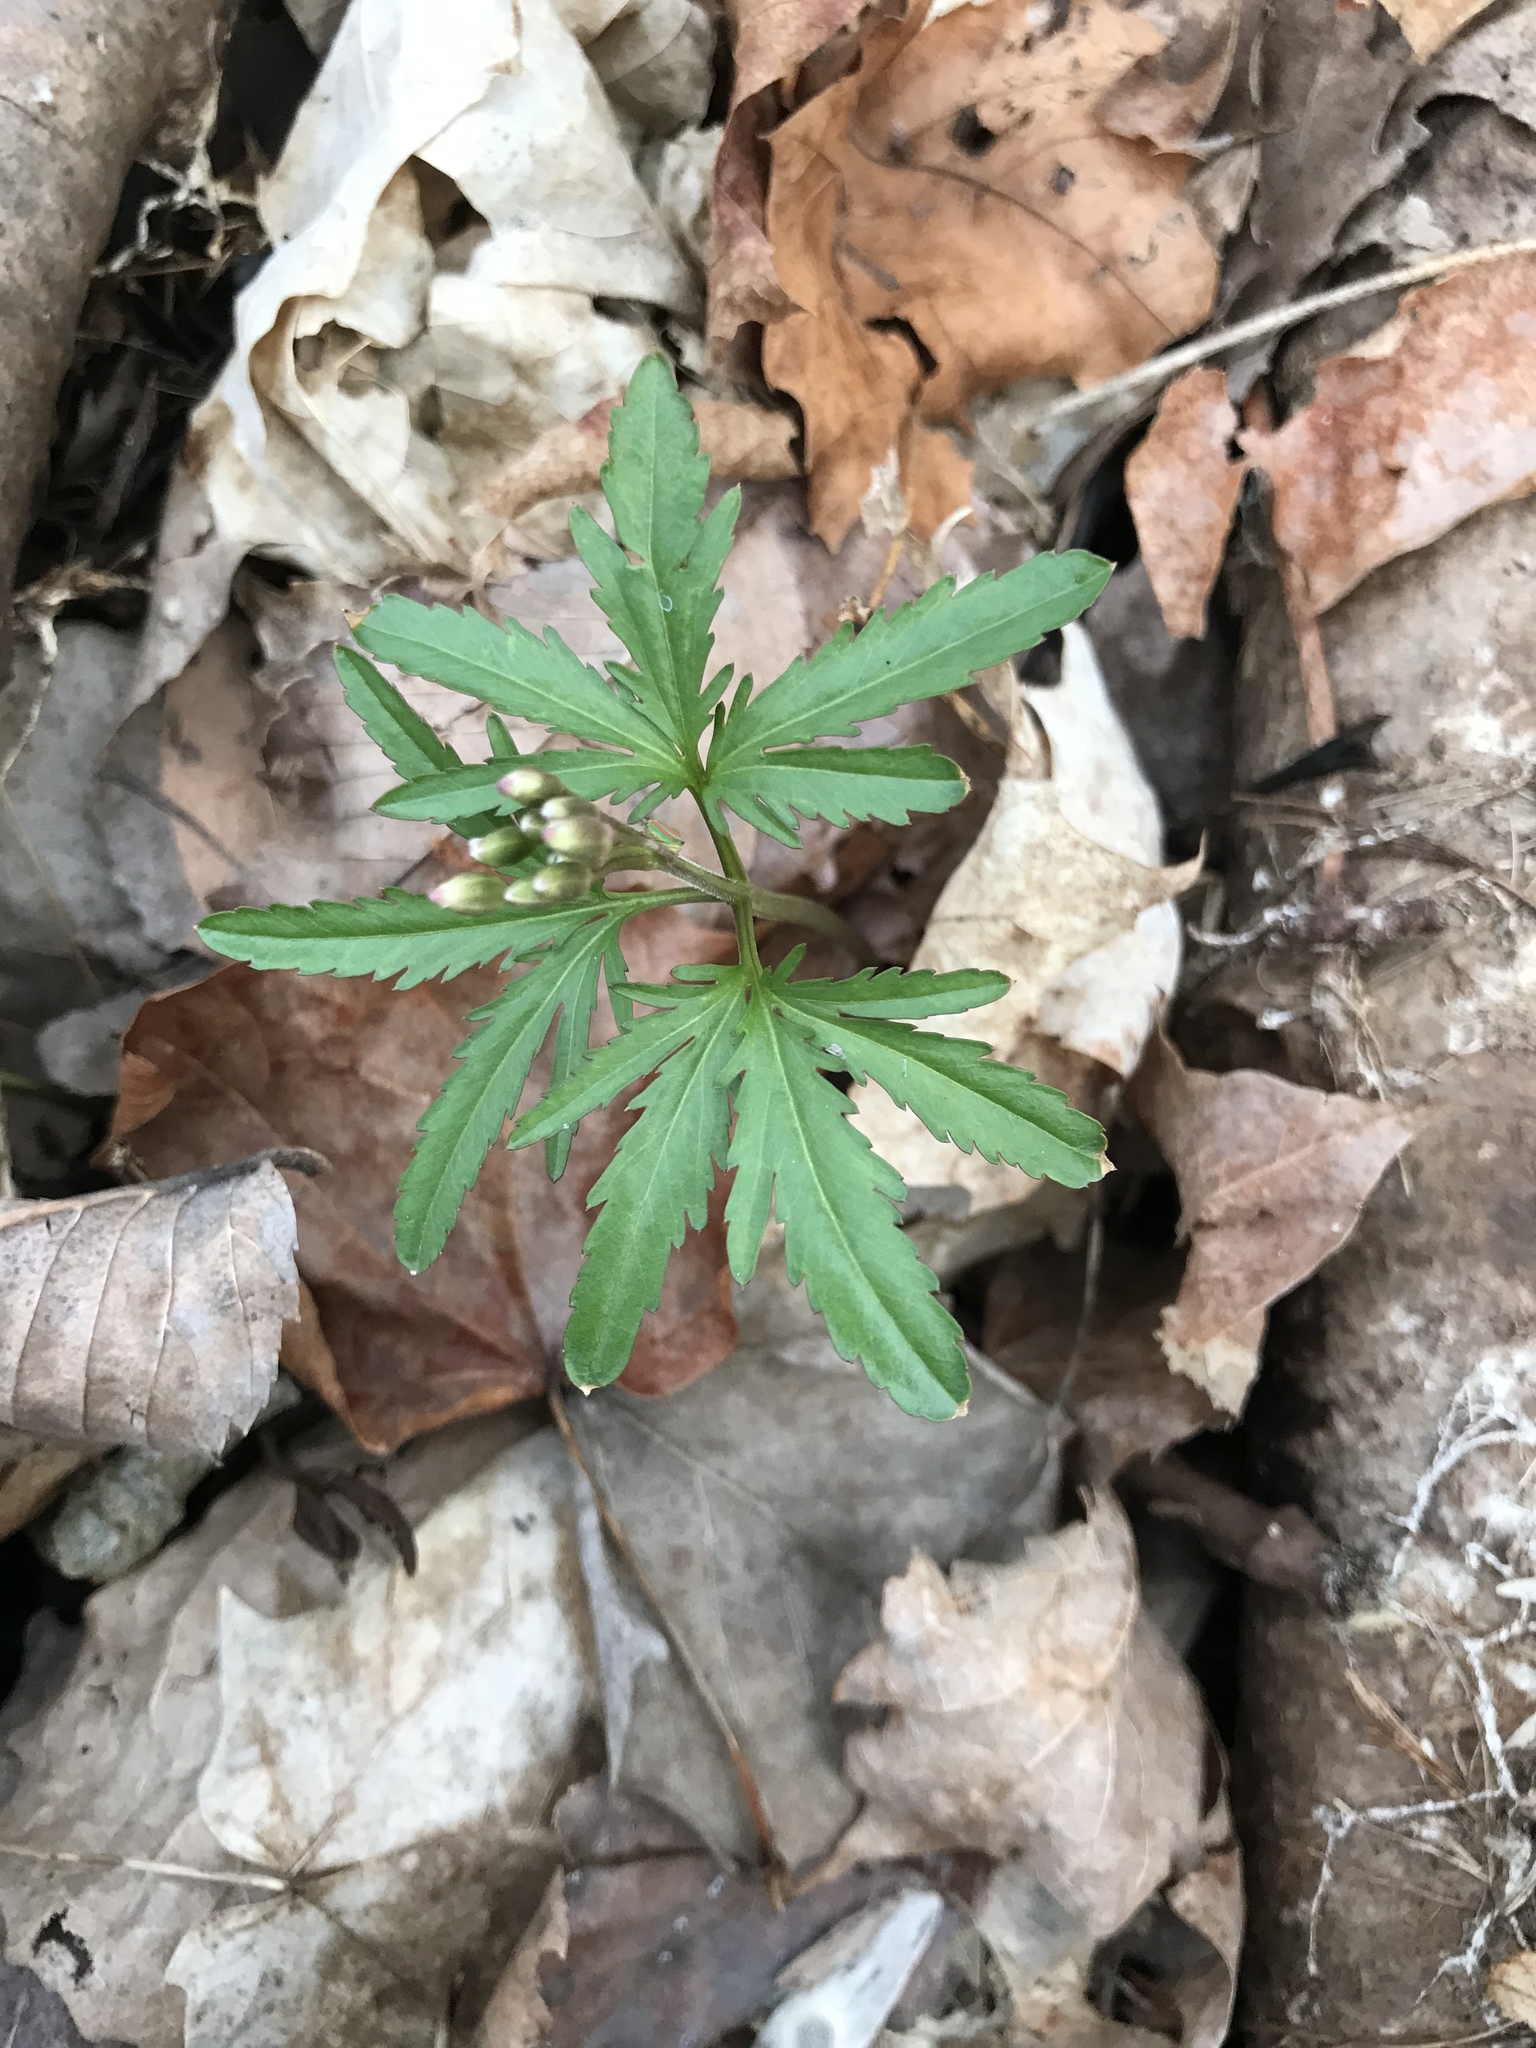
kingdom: Plantae
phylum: Tracheophyta
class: Magnoliopsida
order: Brassicales
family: Brassicaceae
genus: Cardamine
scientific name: Cardamine concatenata
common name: Cut-leaf toothcup
